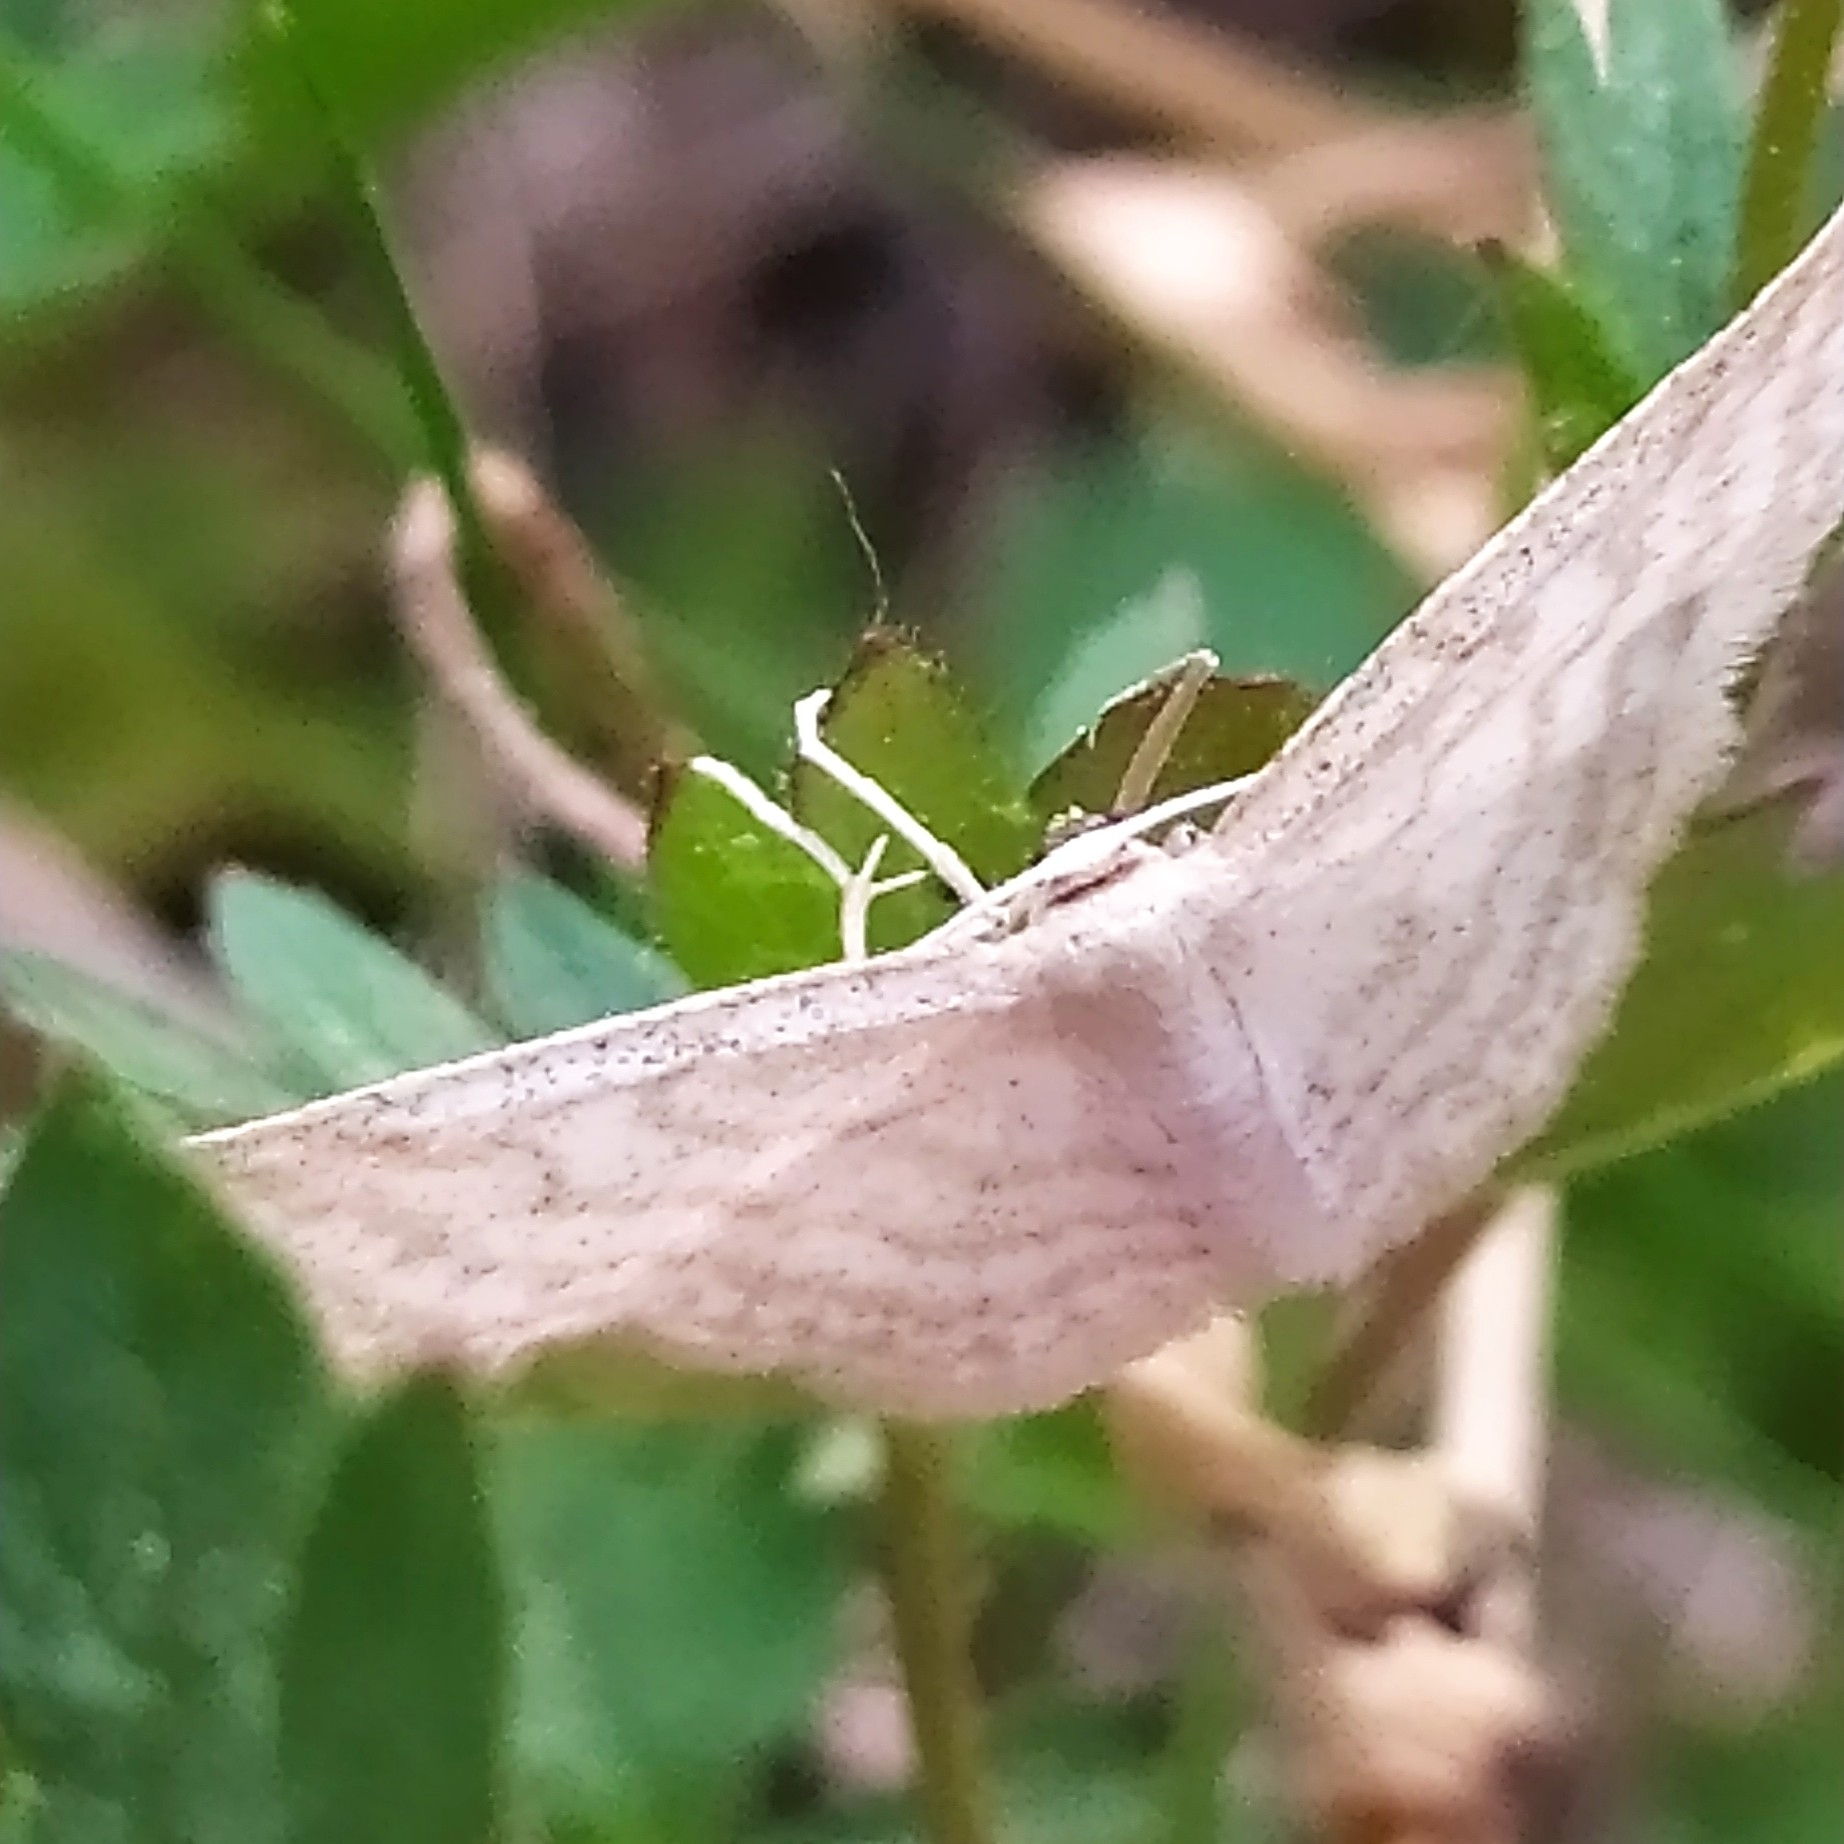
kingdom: Animalia
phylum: Arthropoda
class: Insecta
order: Lepidoptera
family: Geometridae
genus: Idaea
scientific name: Idaea pallidata
